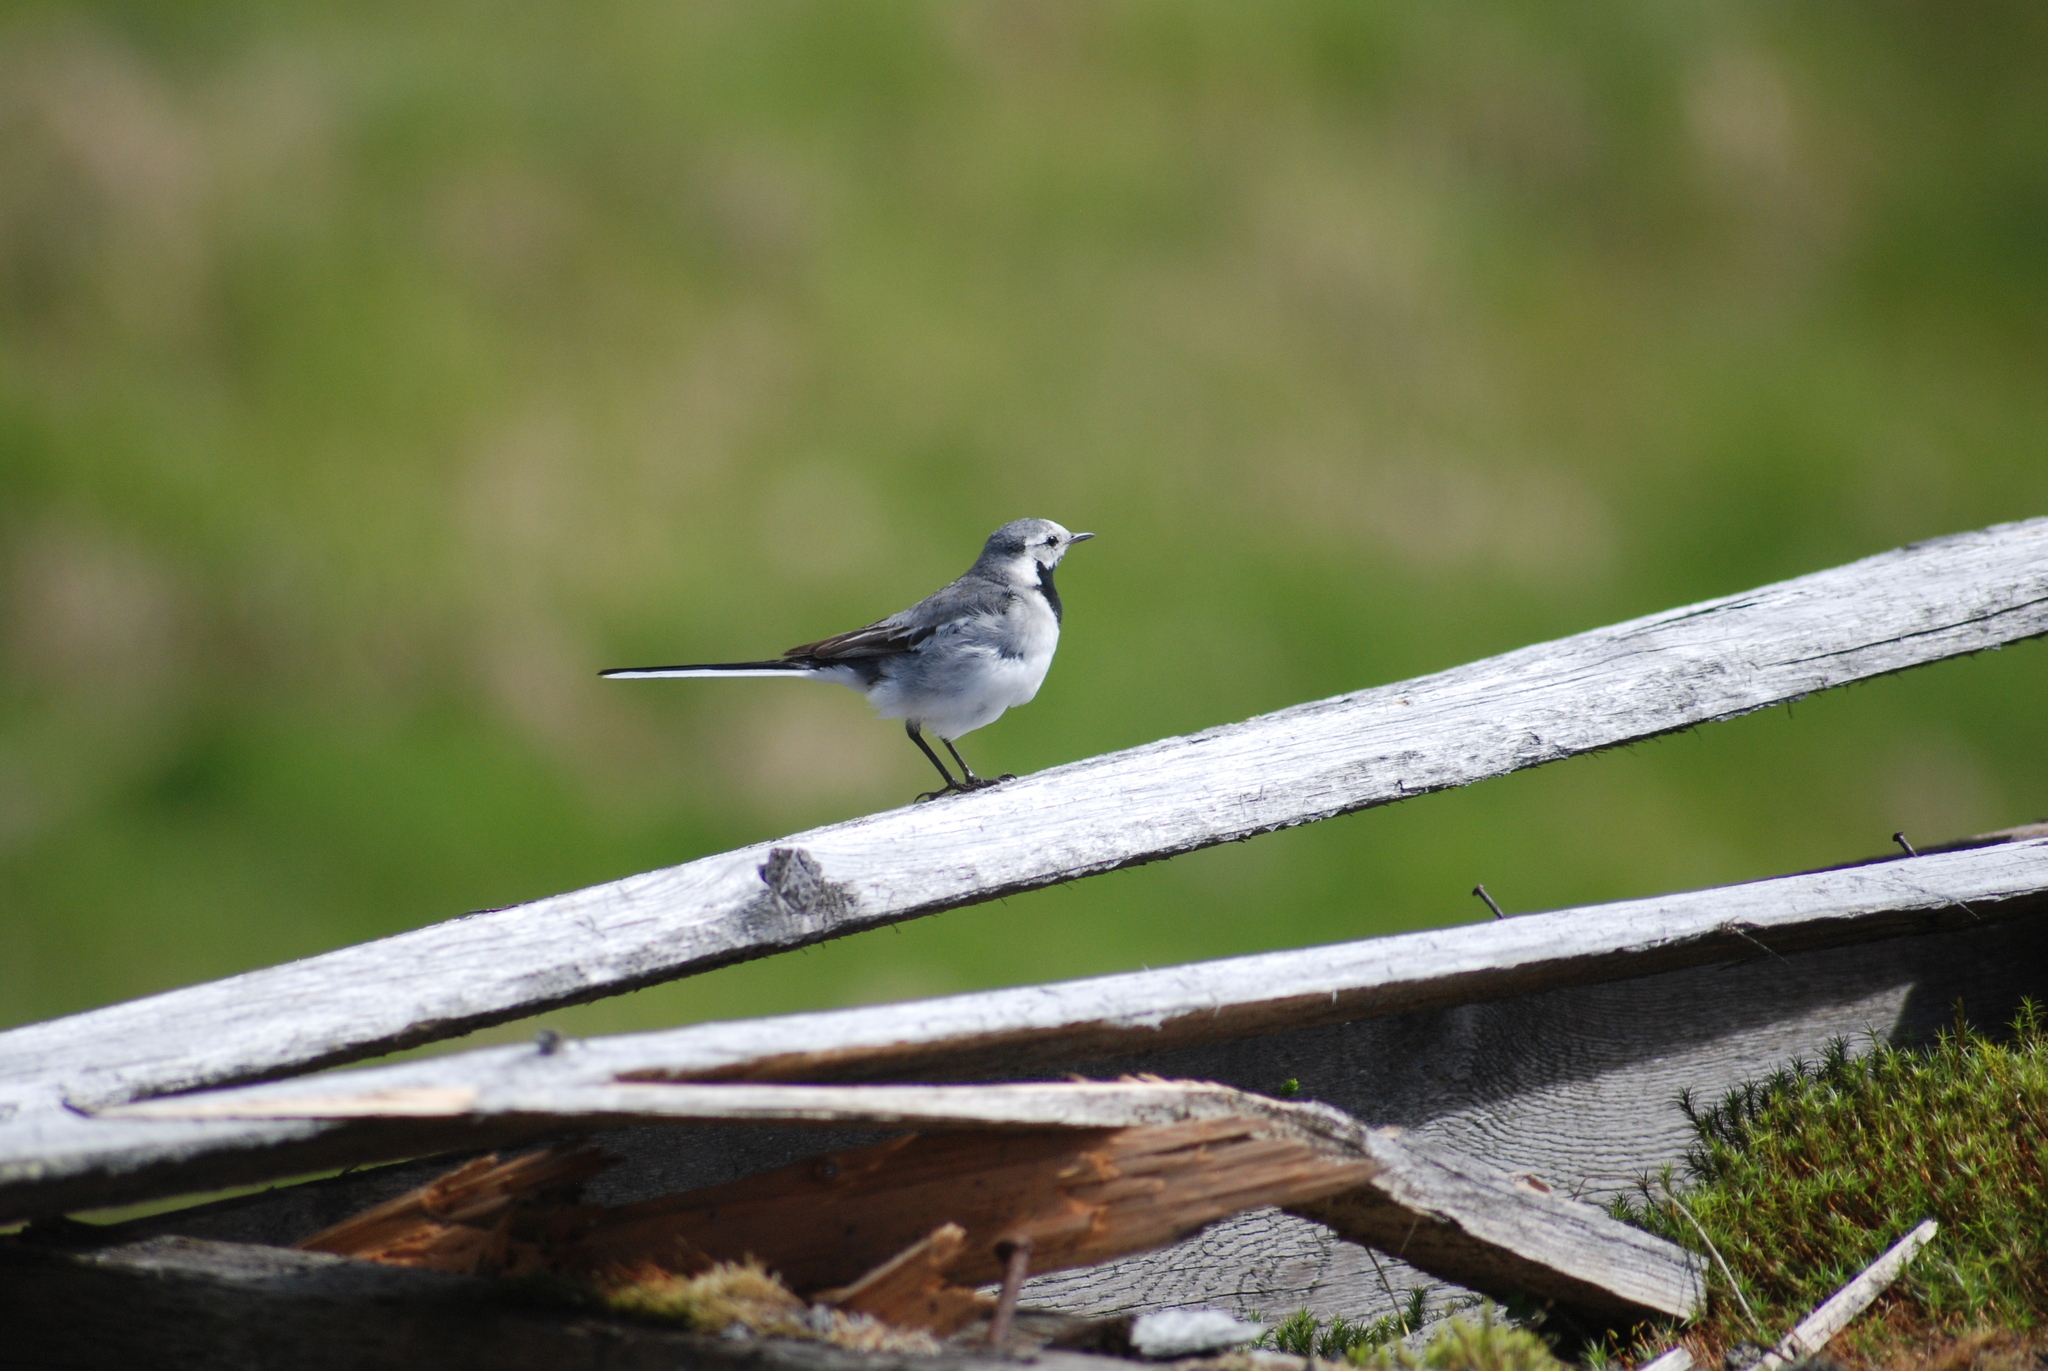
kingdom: Animalia
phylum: Chordata
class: Aves
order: Passeriformes
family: Motacillidae
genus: Motacilla
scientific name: Motacilla alba
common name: White wagtail
